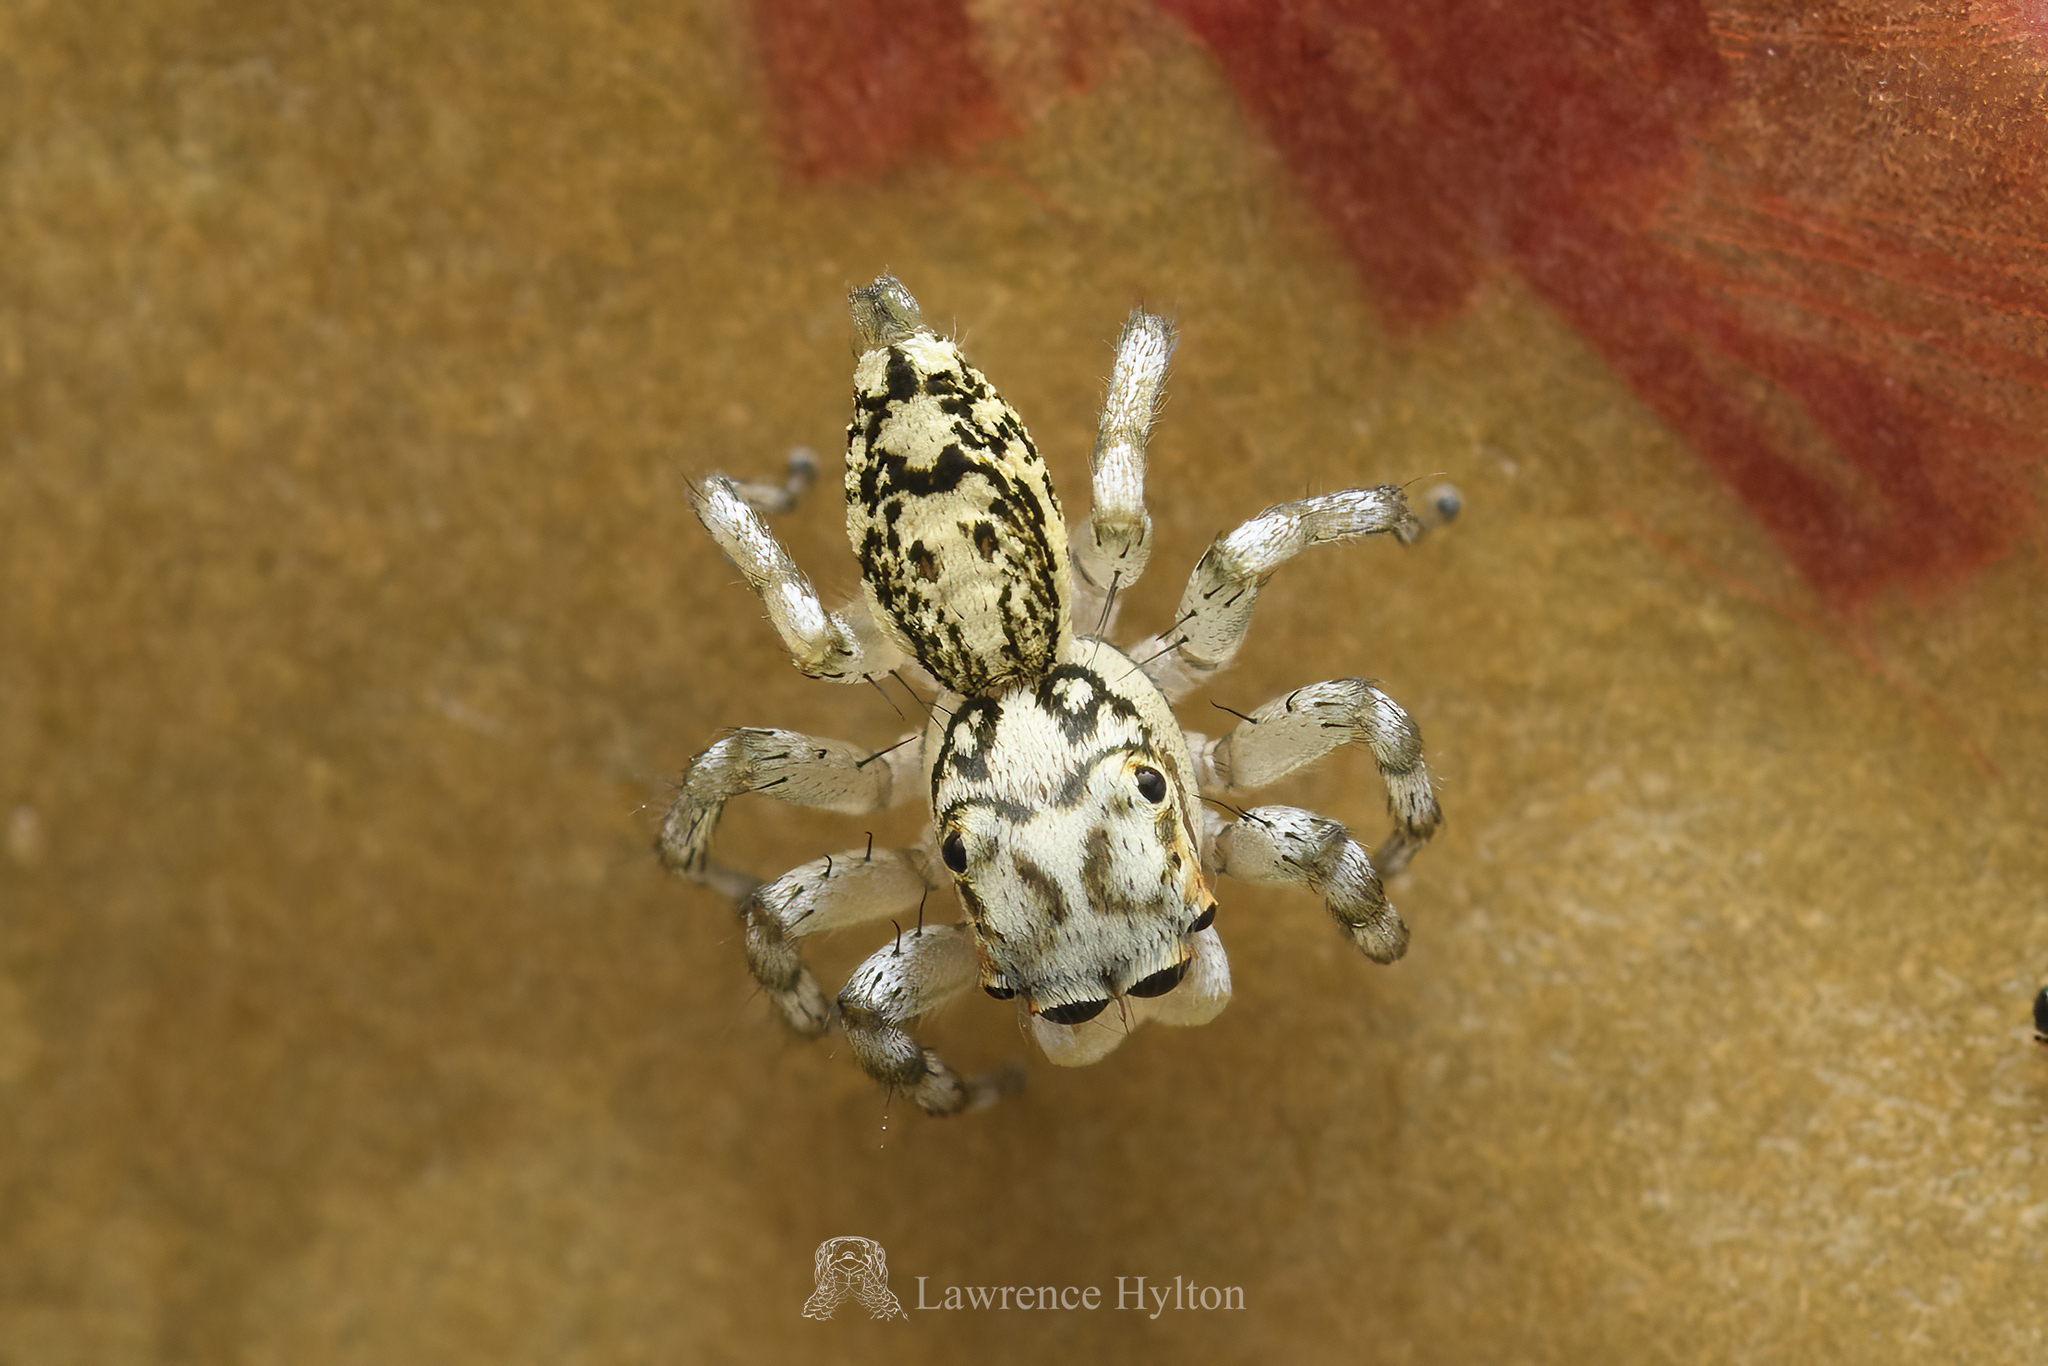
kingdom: Animalia
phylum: Arthropoda
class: Arachnida
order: Araneae
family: Salticidae
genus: Phintelloides
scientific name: Phintelloides versicolor
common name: Jumping spider
